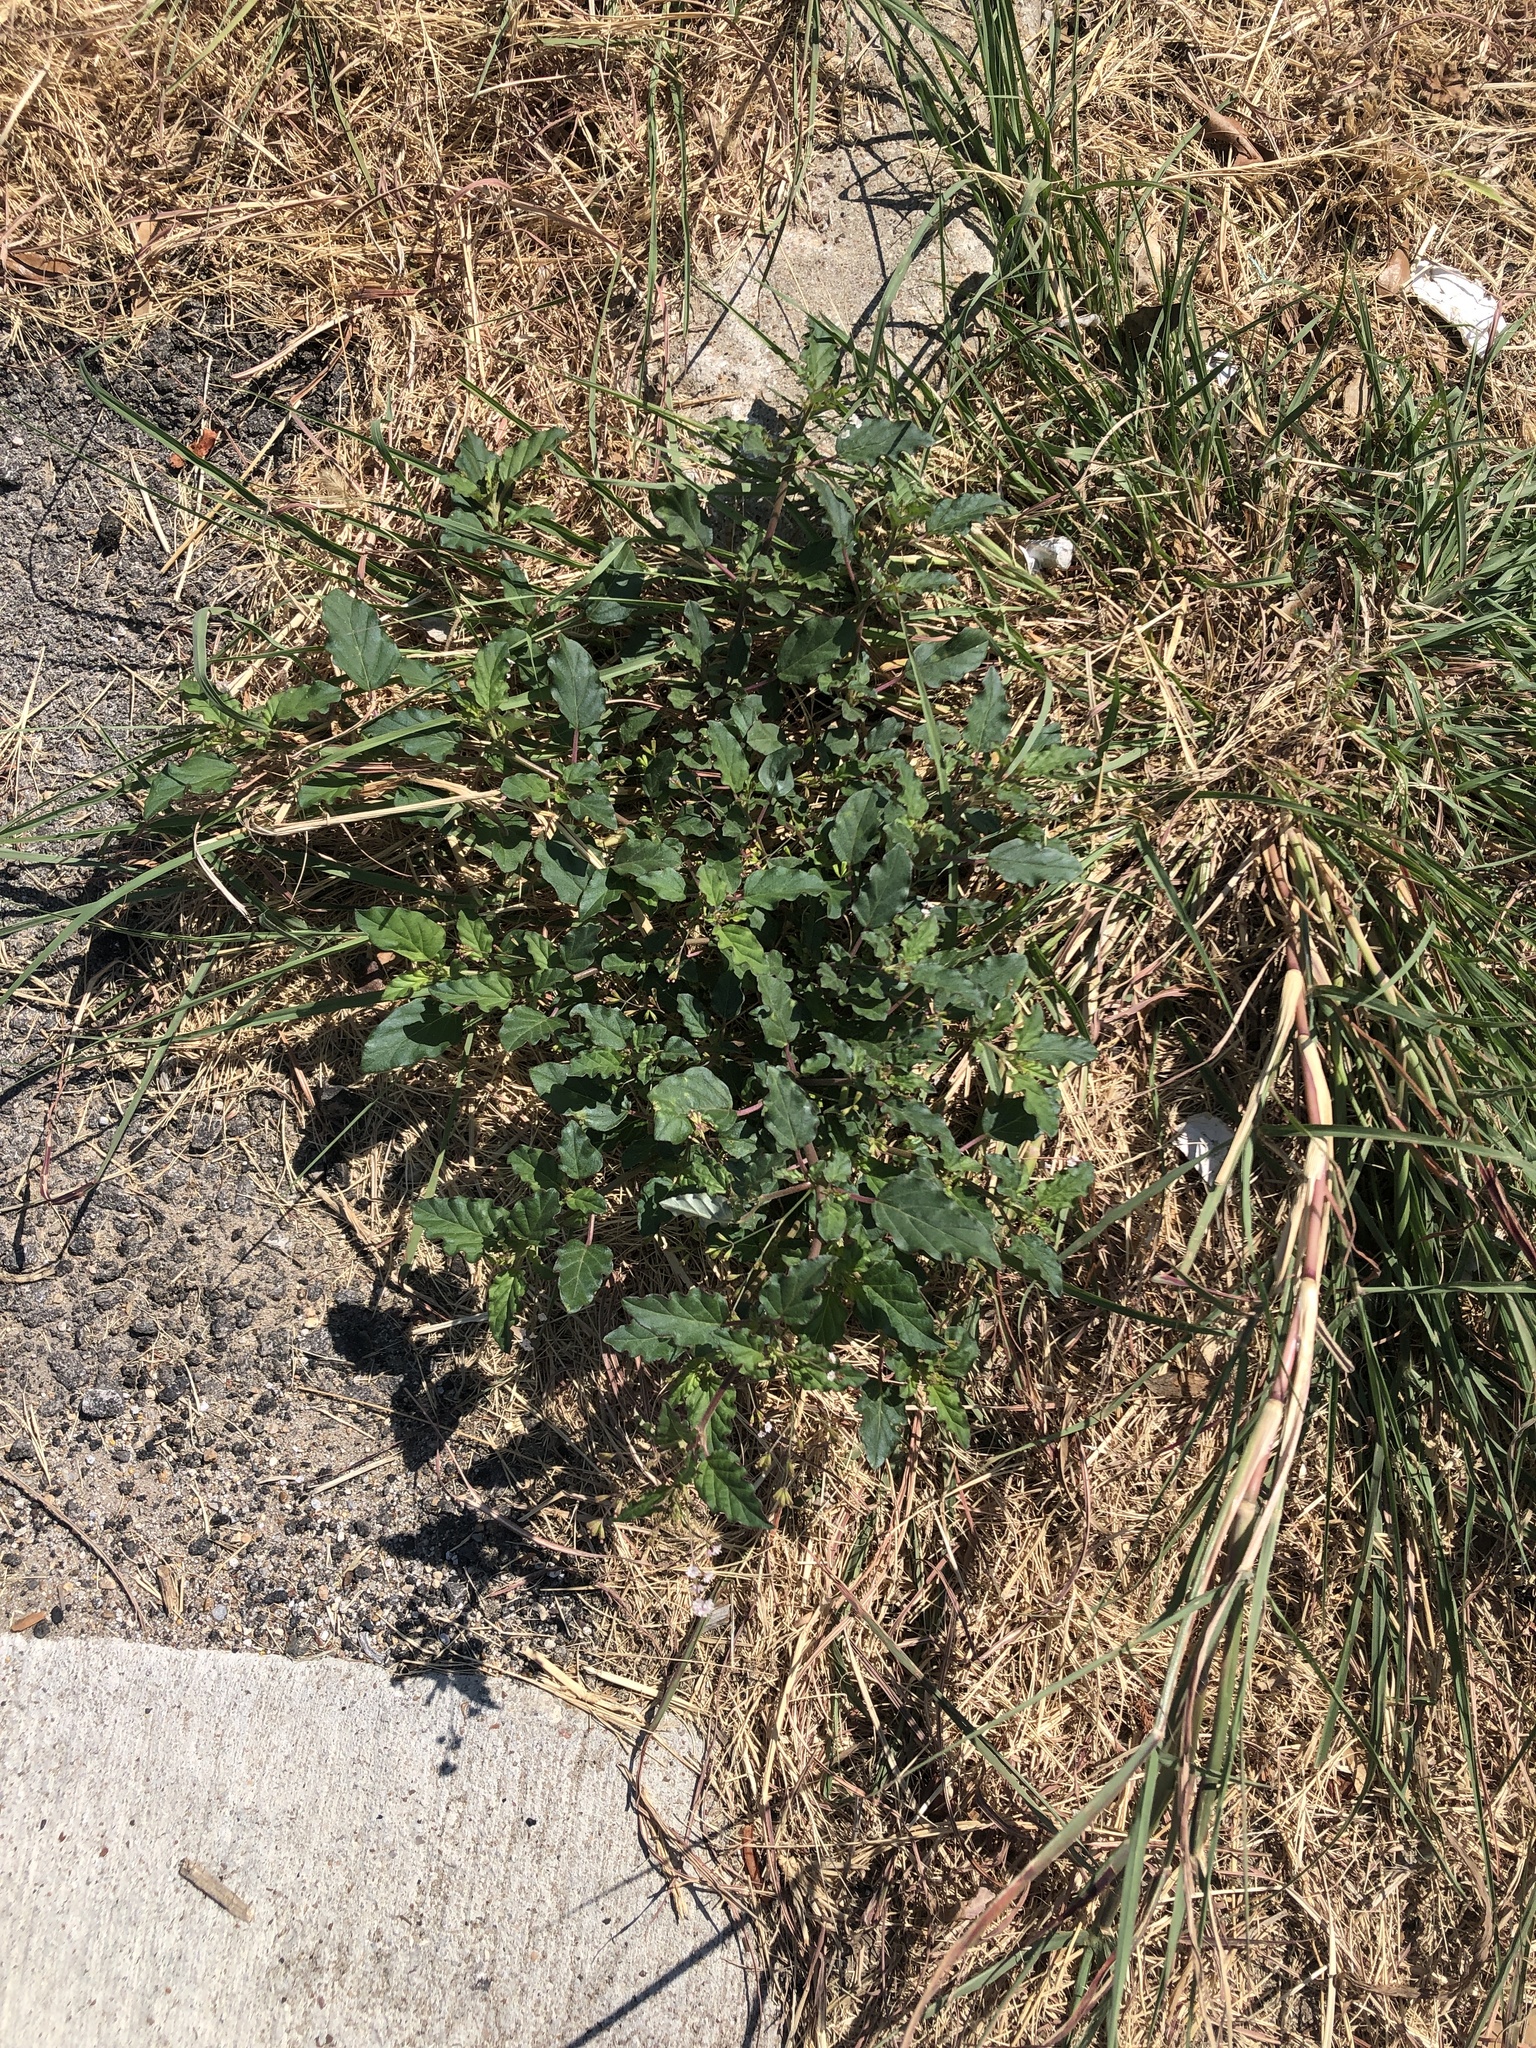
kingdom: Plantae
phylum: Tracheophyta
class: Magnoliopsida
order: Caryophyllales
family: Nyctaginaceae
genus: Boerhavia
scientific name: Boerhavia erecta
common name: Erect spiderling
